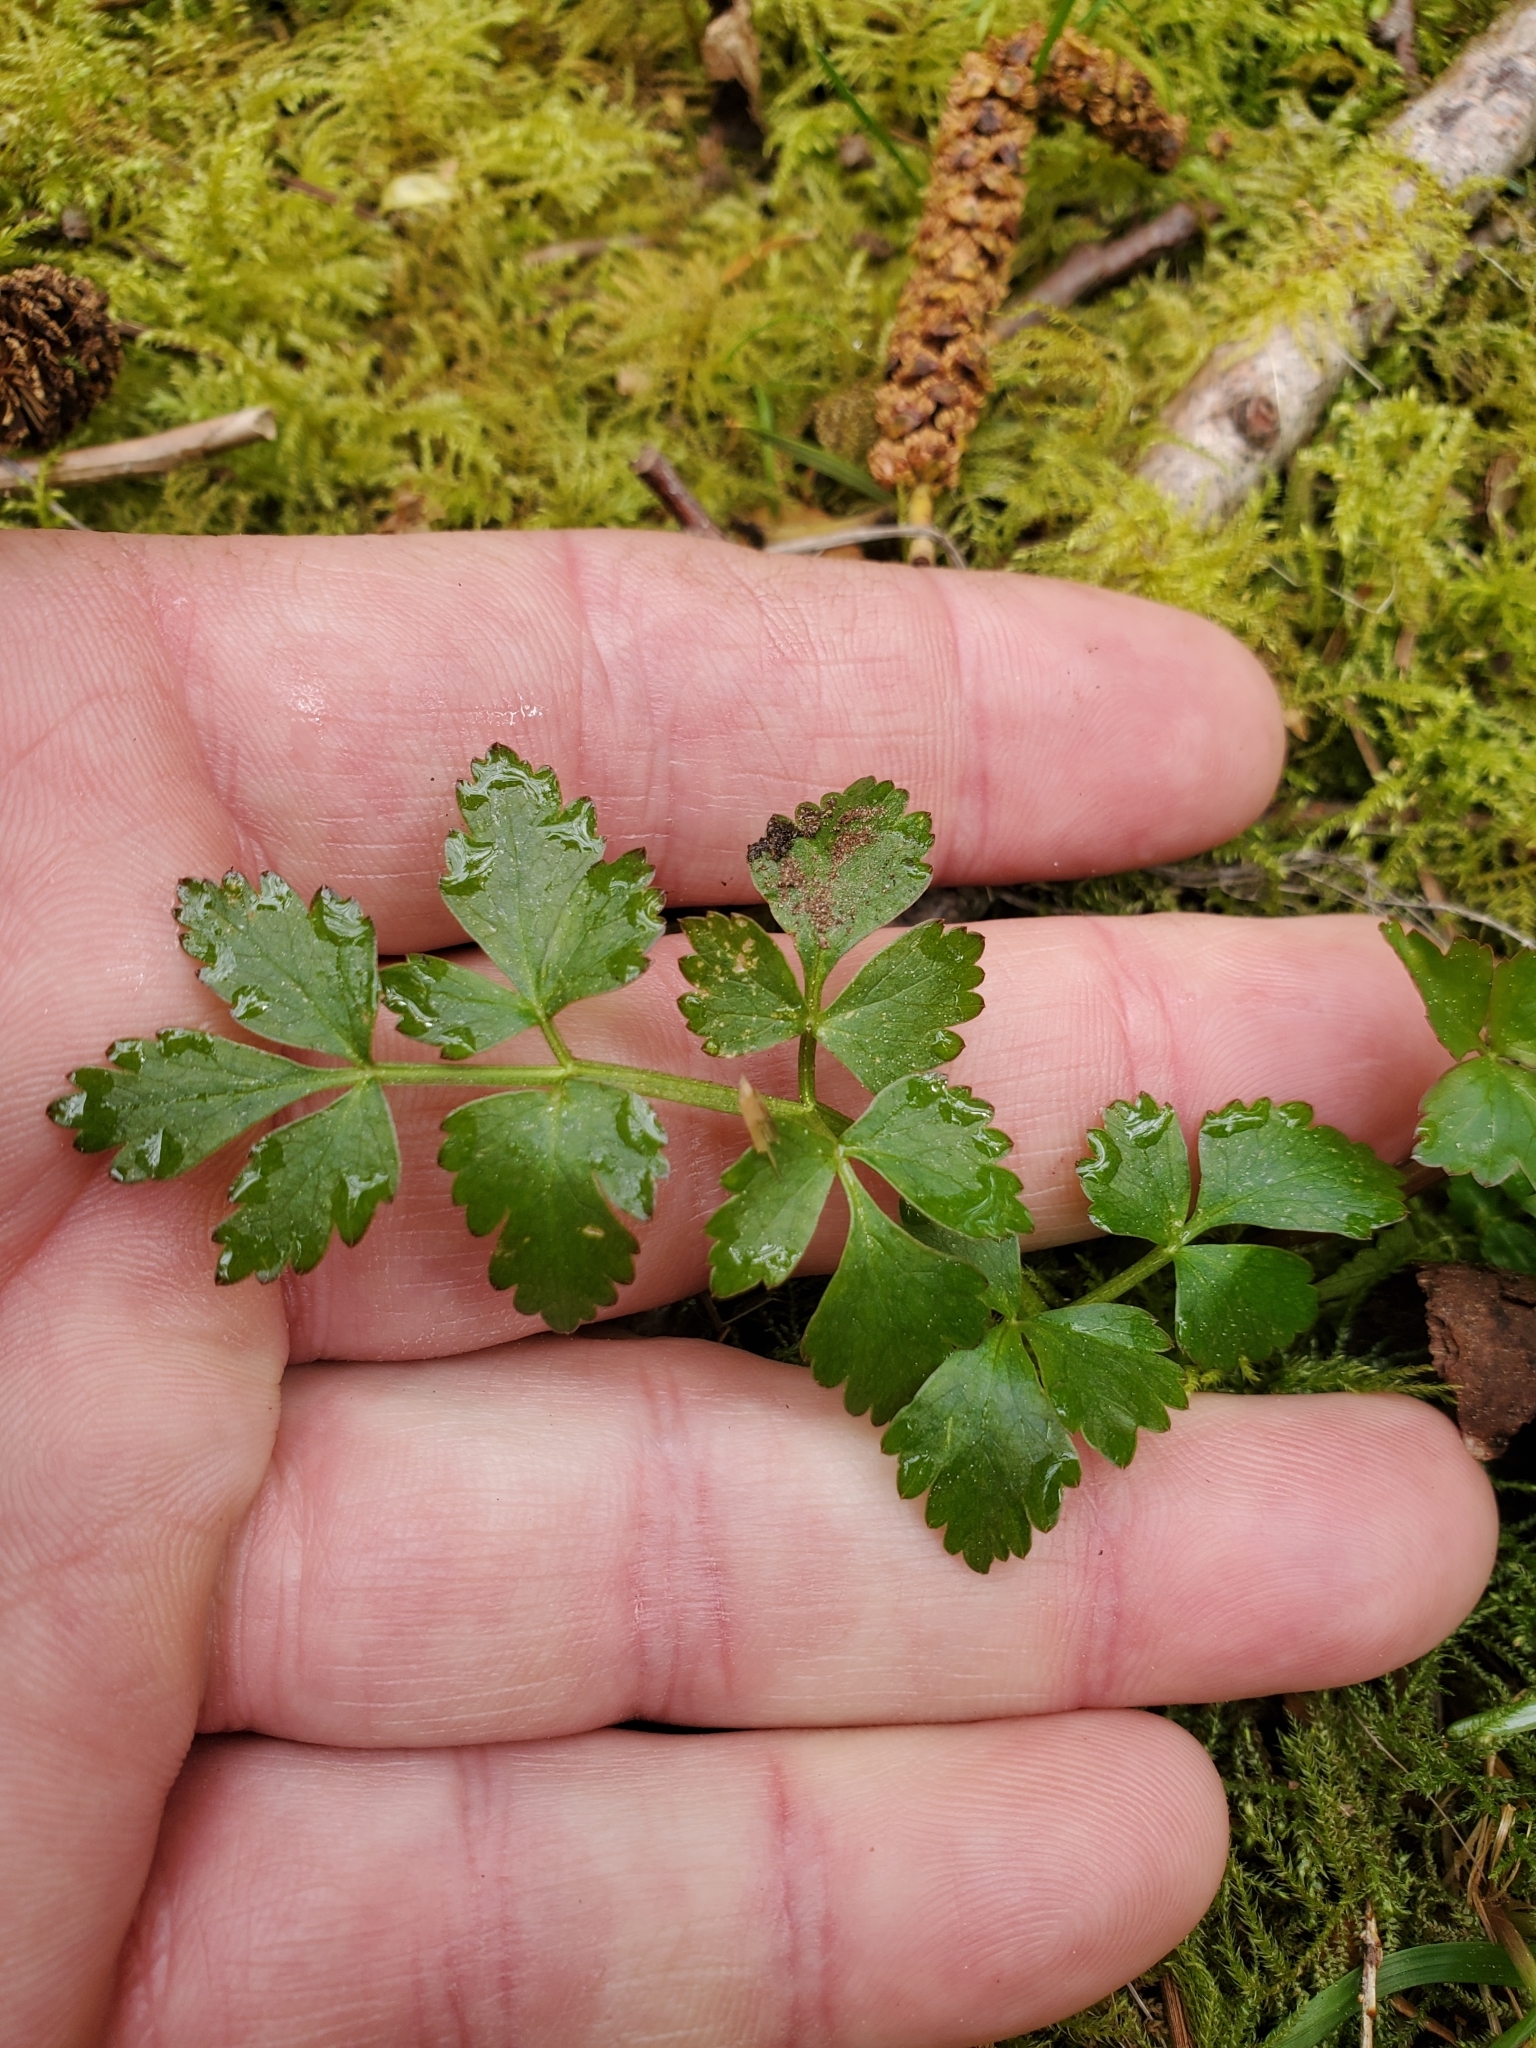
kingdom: Plantae
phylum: Tracheophyta
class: Magnoliopsida
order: Apiales
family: Apiaceae
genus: Oenanthe
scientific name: Oenanthe sarmentosa
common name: American water-parsley
